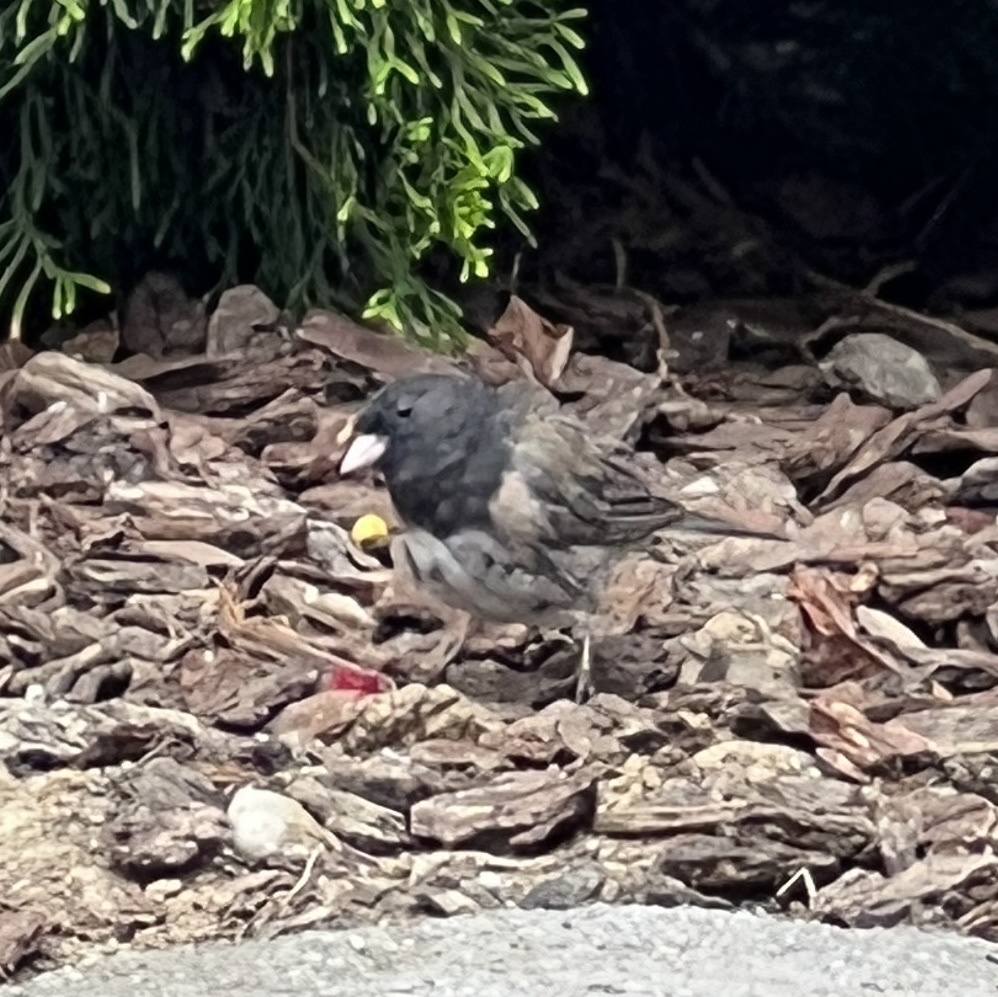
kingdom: Animalia
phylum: Chordata
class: Aves
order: Passeriformes
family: Passerellidae
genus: Junco
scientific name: Junco hyemalis
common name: Dark-eyed junco
